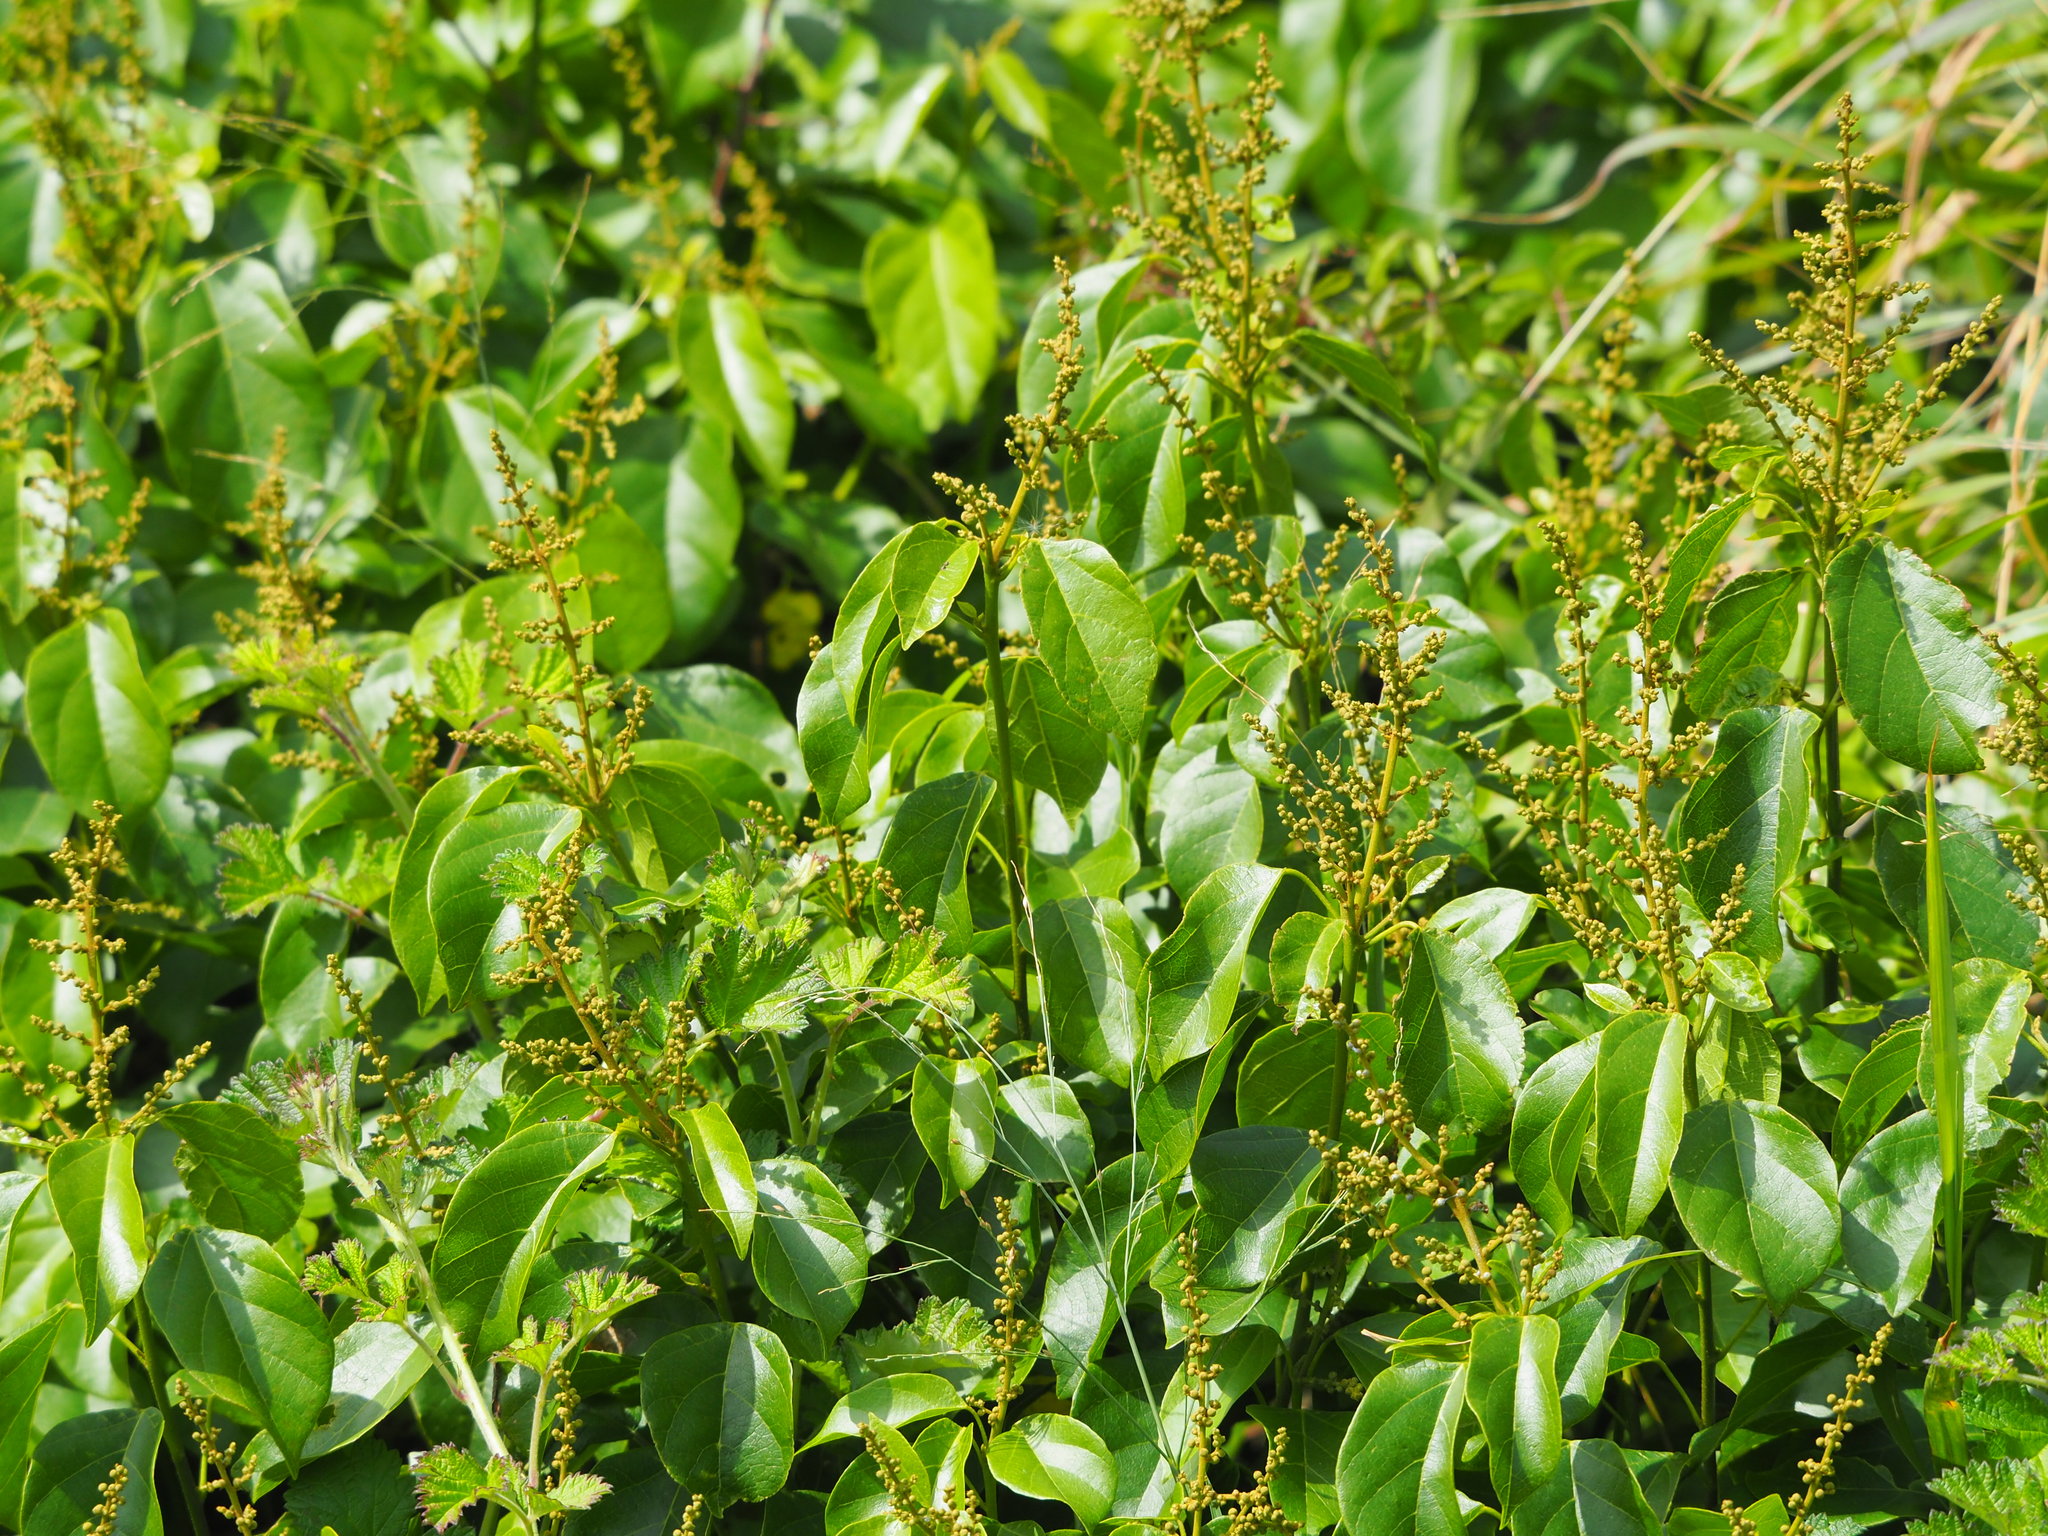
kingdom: Plantae
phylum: Tracheophyta
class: Magnoliopsida
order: Malpighiales
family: Euphorbiaceae
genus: Mallotus
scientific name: Mallotus repandus
